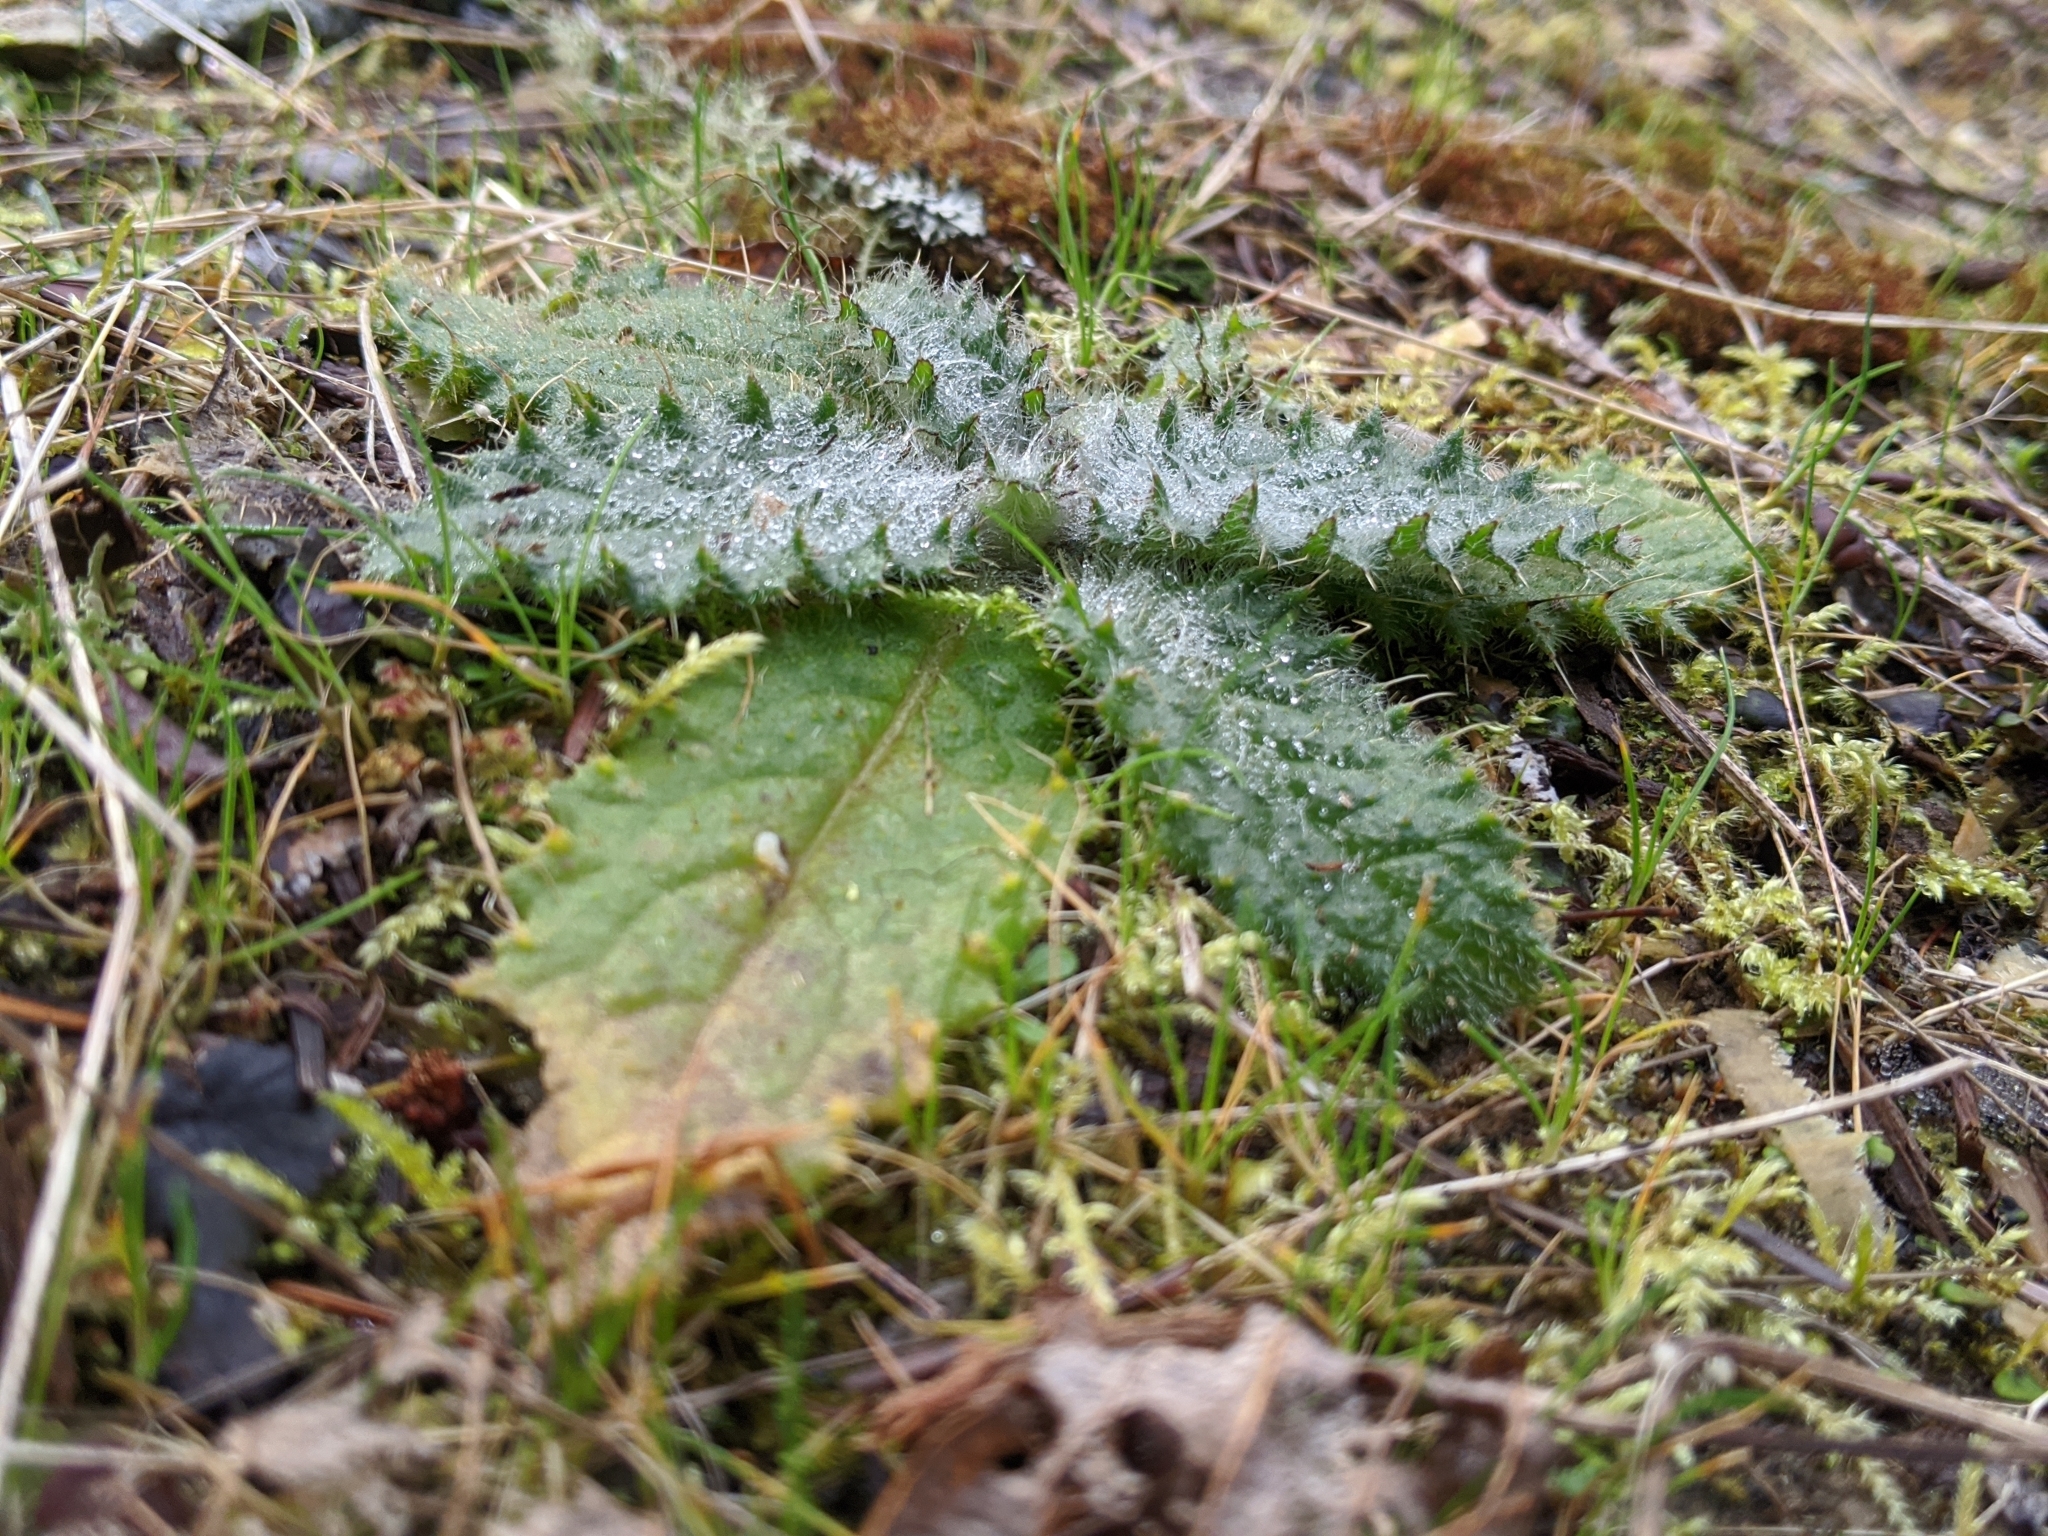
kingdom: Plantae
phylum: Tracheophyta
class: Magnoliopsida
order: Asterales
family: Asteraceae
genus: Cirsium
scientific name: Cirsium vulgare
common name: Bull thistle
